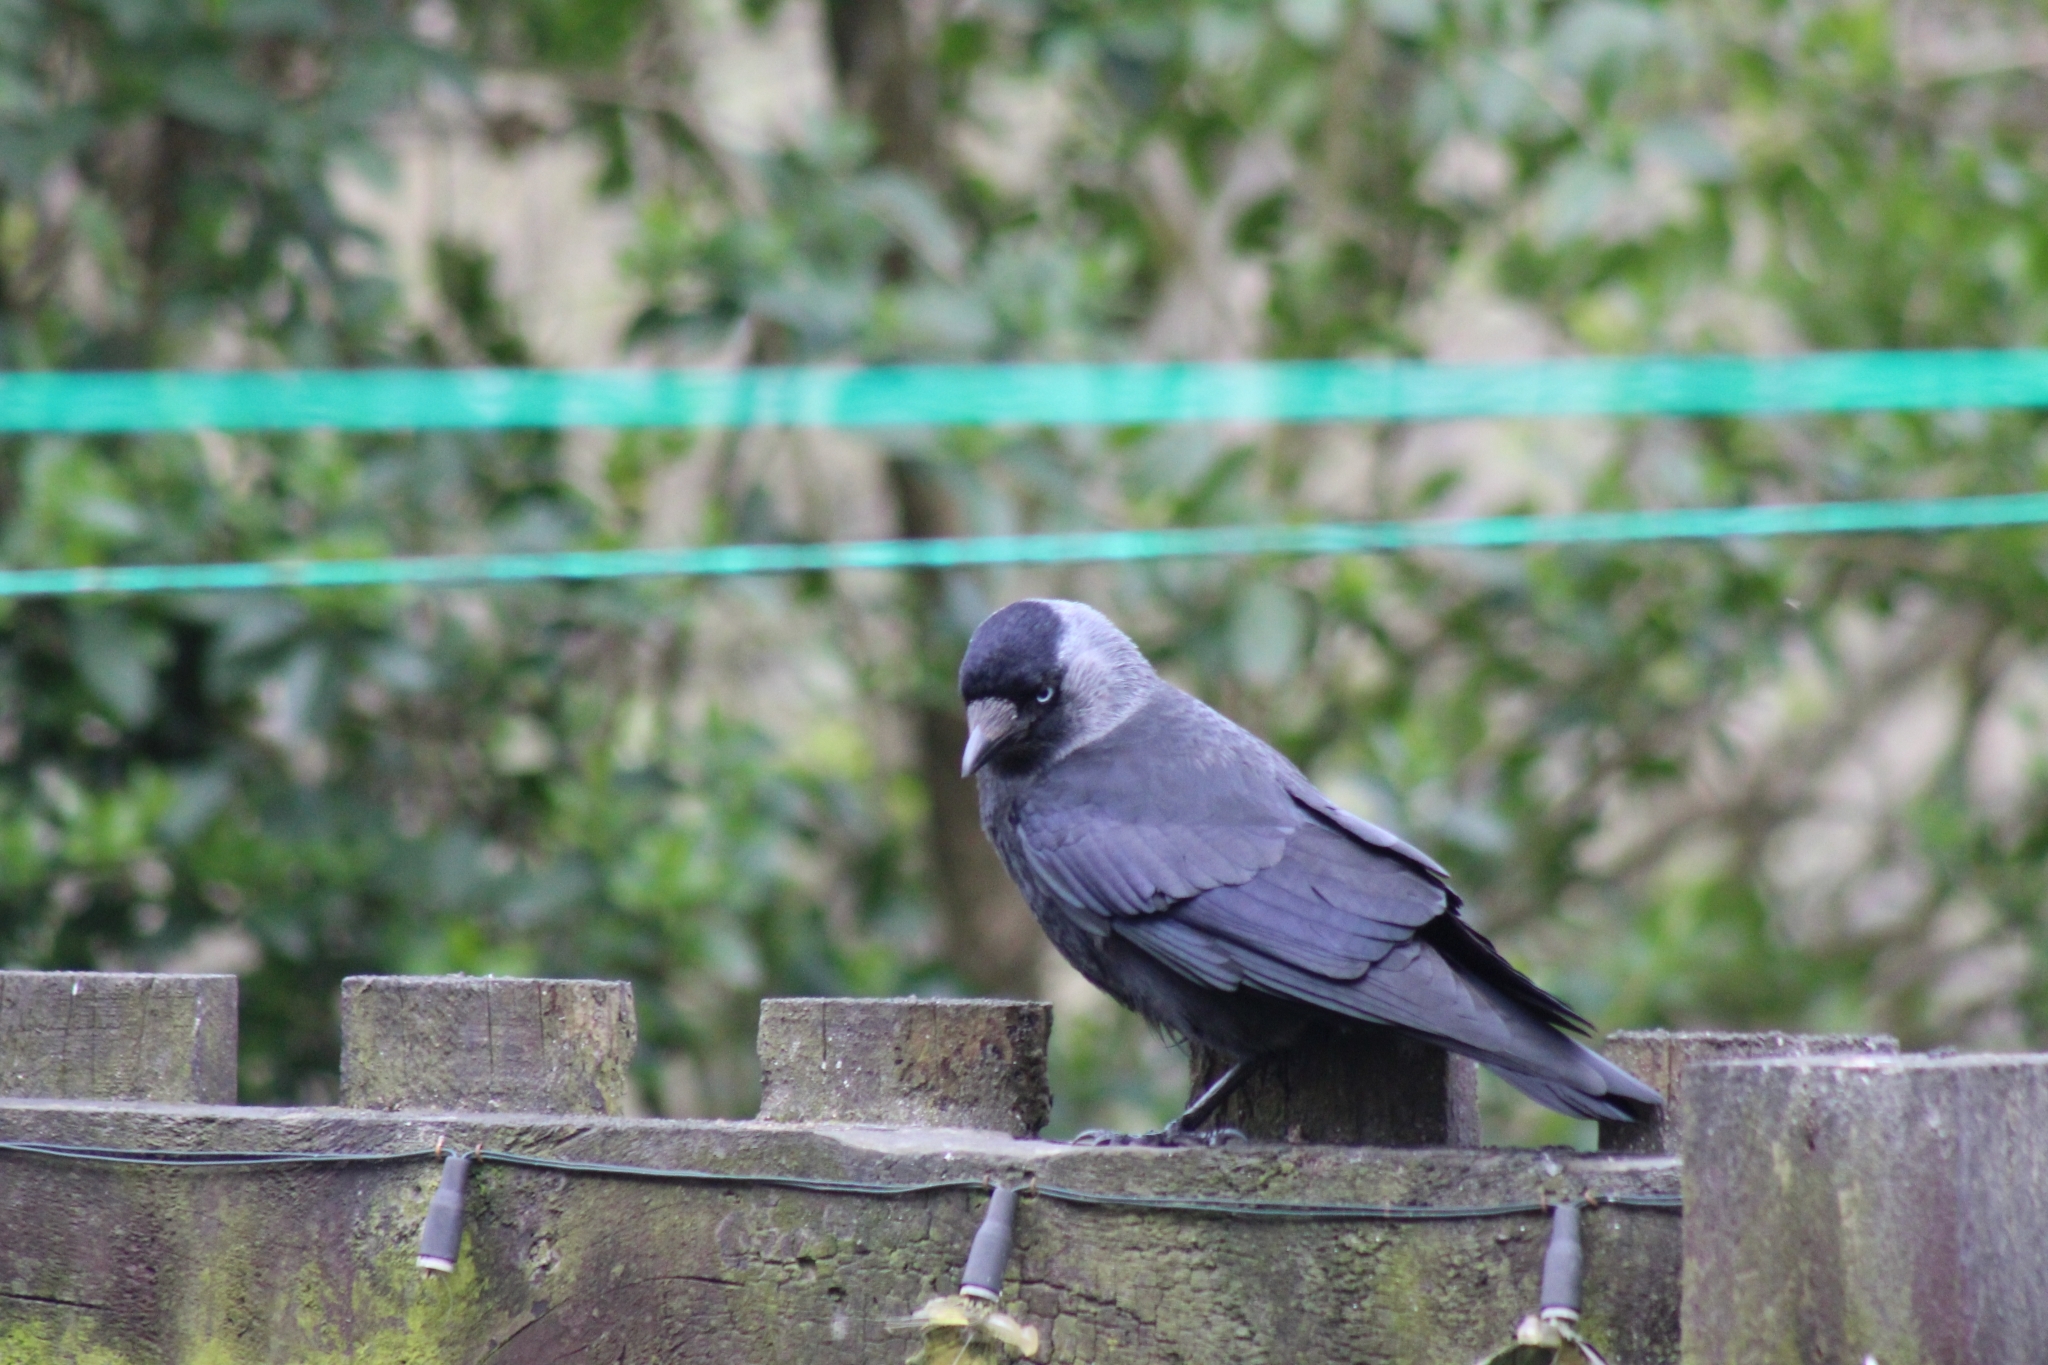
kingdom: Animalia
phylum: Chordata
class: Aves
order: Passeriformes
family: Corvidae
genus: Coloeus
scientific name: Coloeus monedula
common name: Western jackdaw
